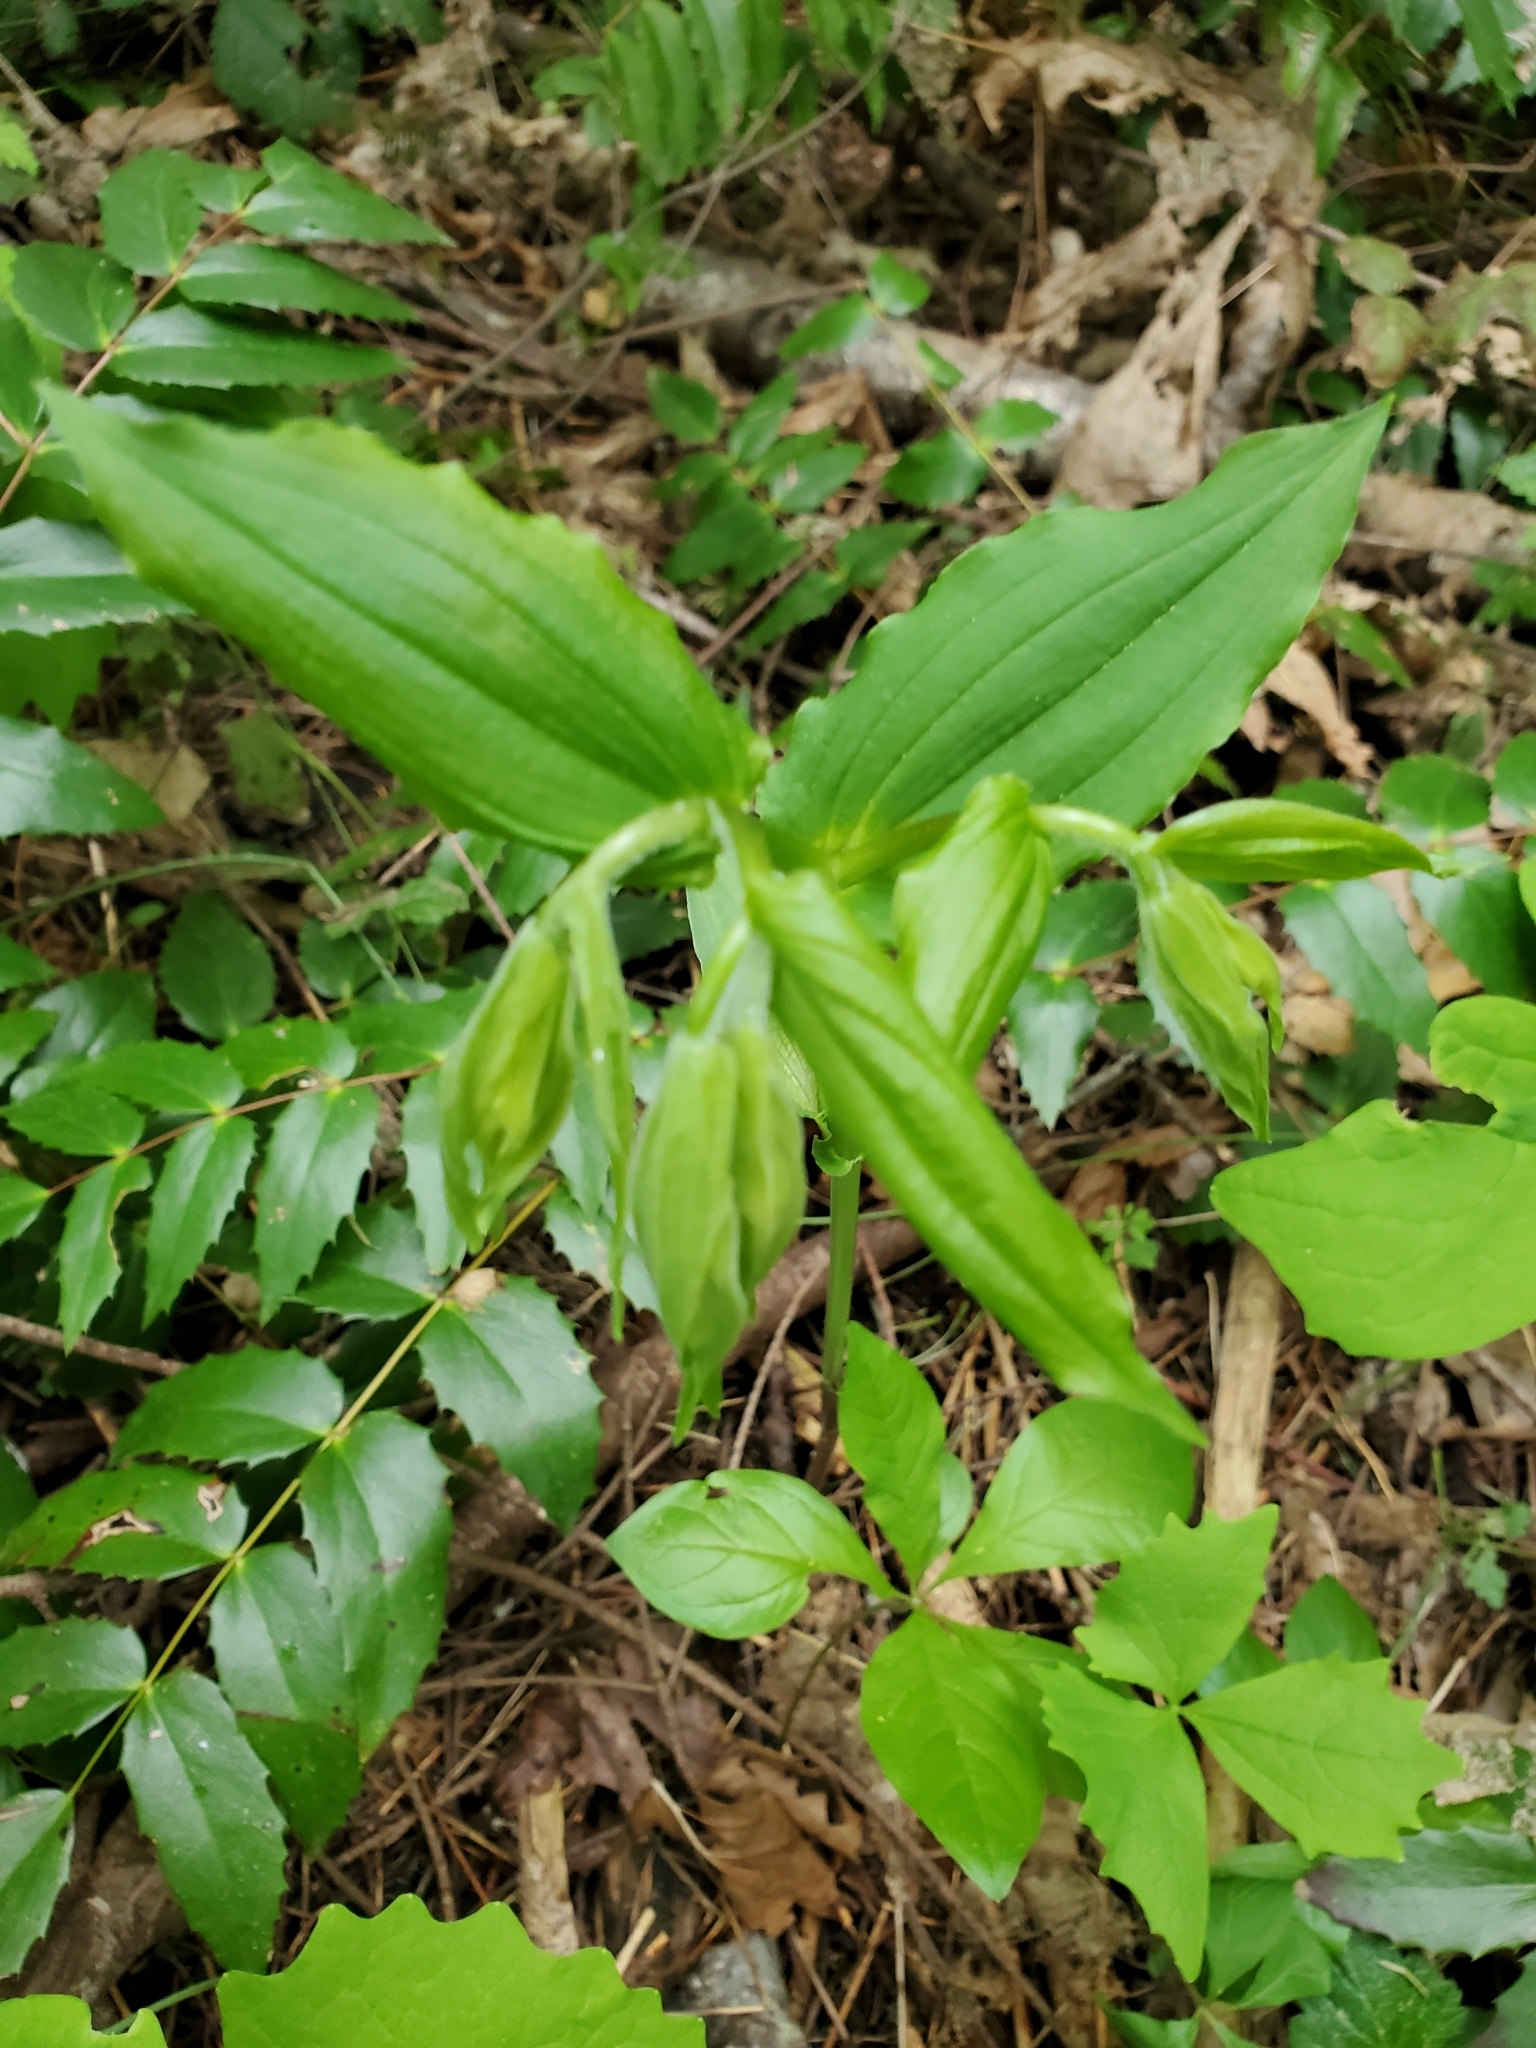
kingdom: Plantae
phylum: Tracheophyta
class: Liliopsida
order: Liliales
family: Liliaceae
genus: Prosartes
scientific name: Prosartes hookeri
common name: Fairy-bells
